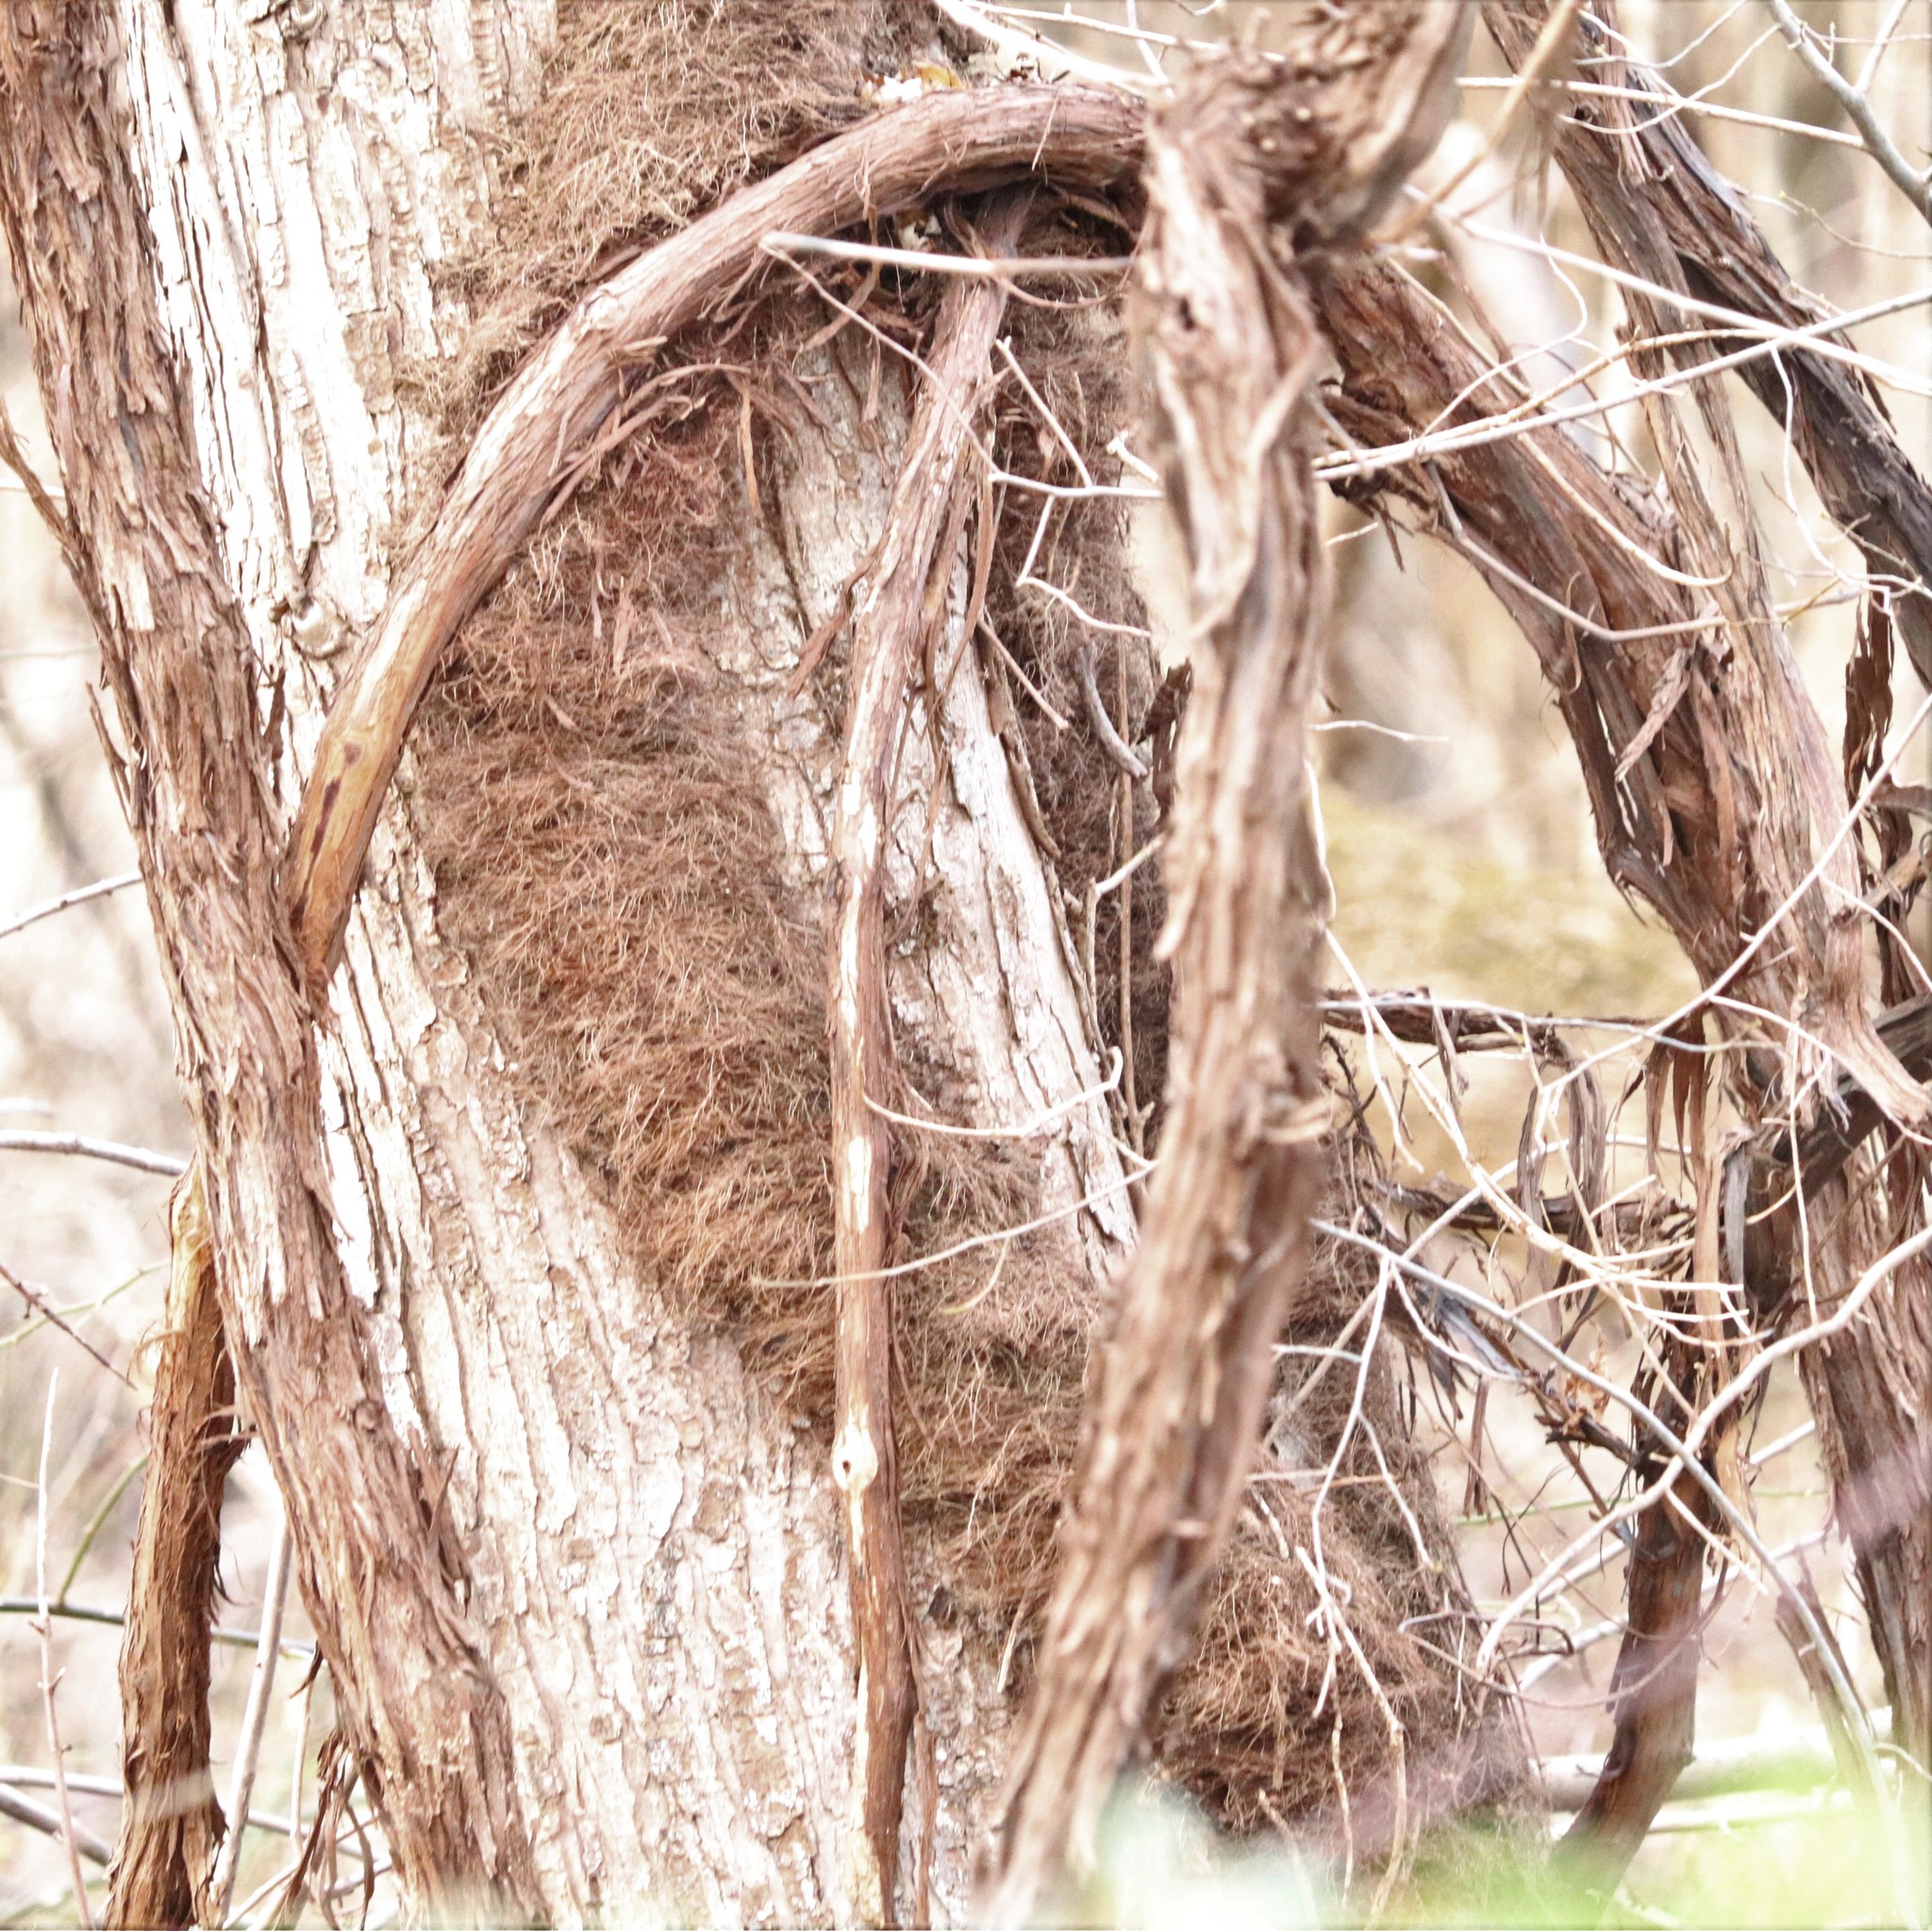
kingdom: Plantae
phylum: Tracheophyta
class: Magnoliopsida
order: Sapindales
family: Anacardiaceae
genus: Toxicodendron
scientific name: Toxicodendron radicans
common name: Poison ivy
